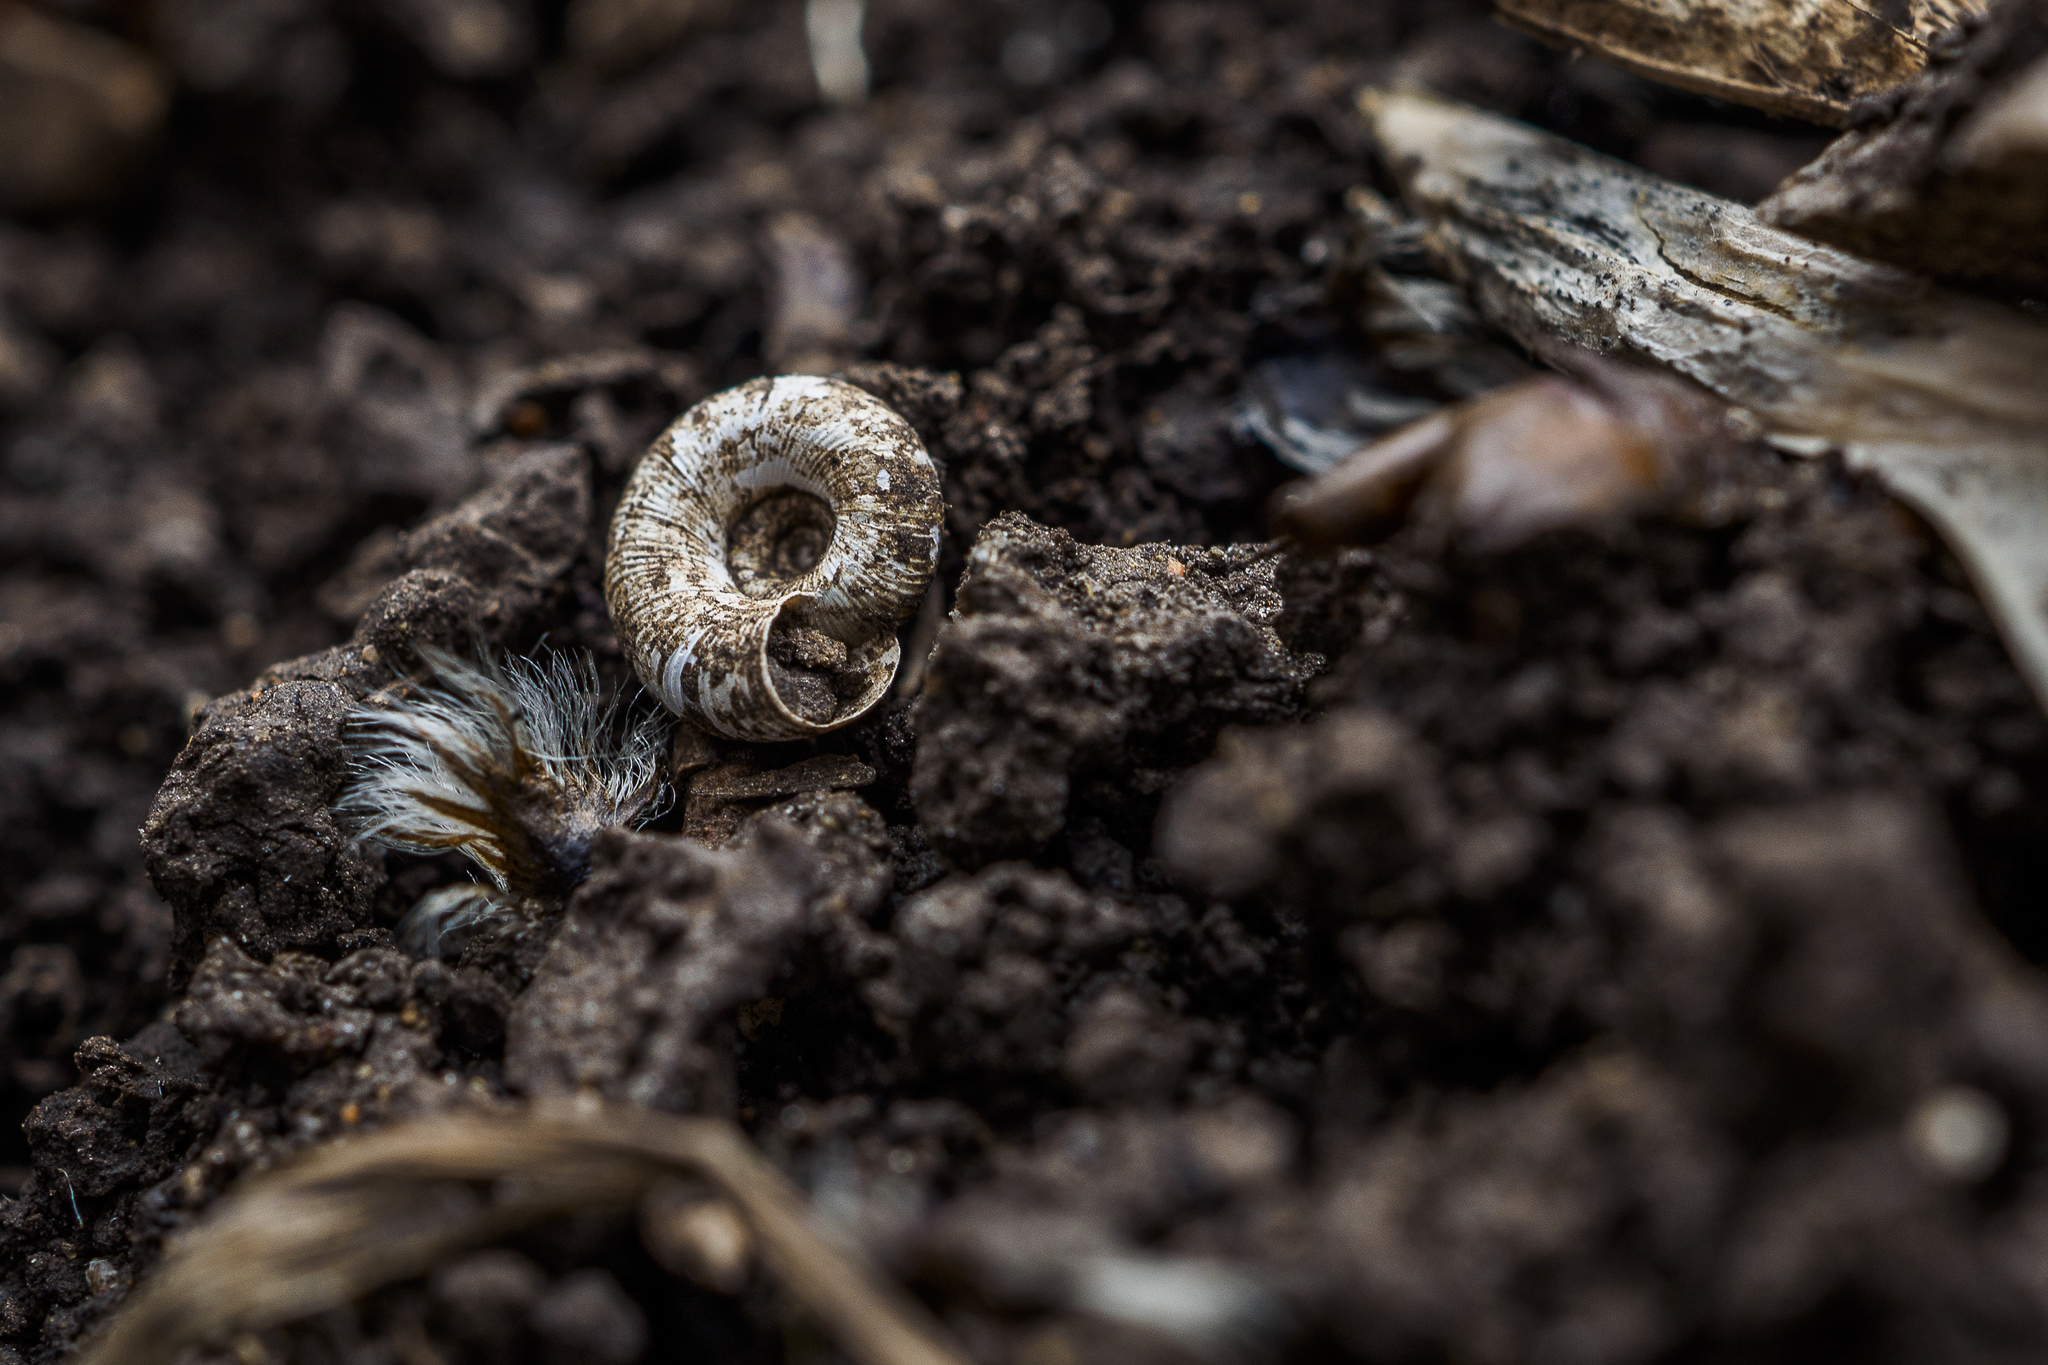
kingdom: Animalia
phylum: Mollusca
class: Gastropoda
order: Stylommatophora
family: Discidae
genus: Discus
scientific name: Discus ruderatus
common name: Brown disc snail
